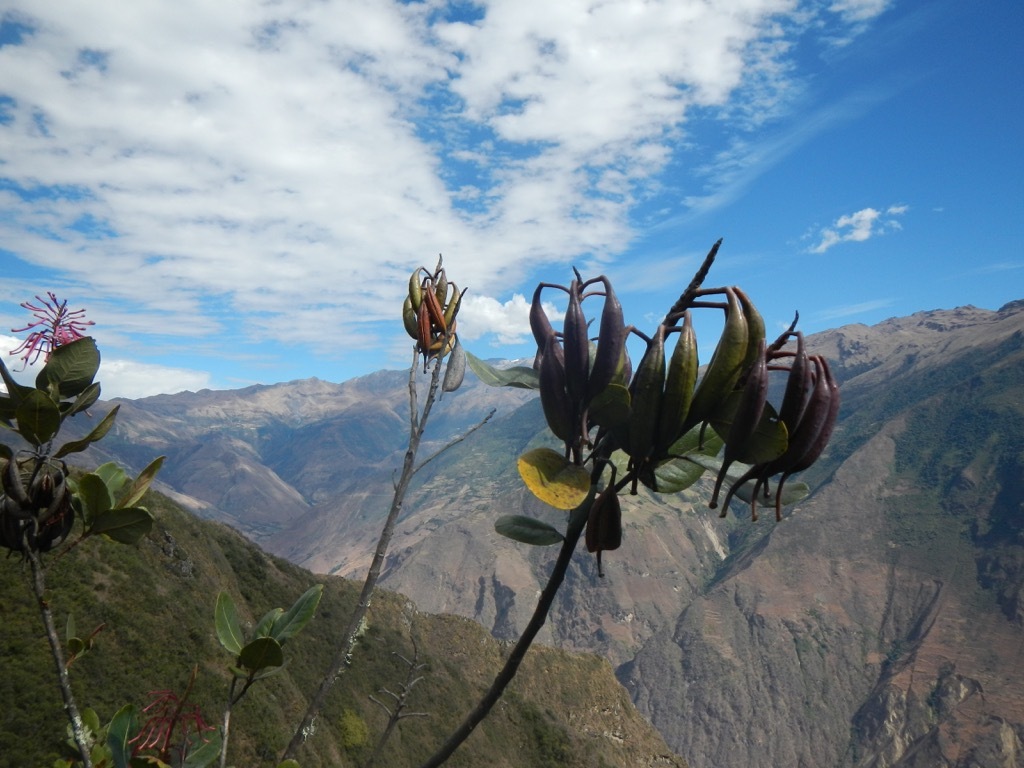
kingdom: Plantae
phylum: Tracheophyta
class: Magnoliopsida
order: Proteales
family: Proteaceae
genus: Oreocallis
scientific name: Oreocallis grandiflora
